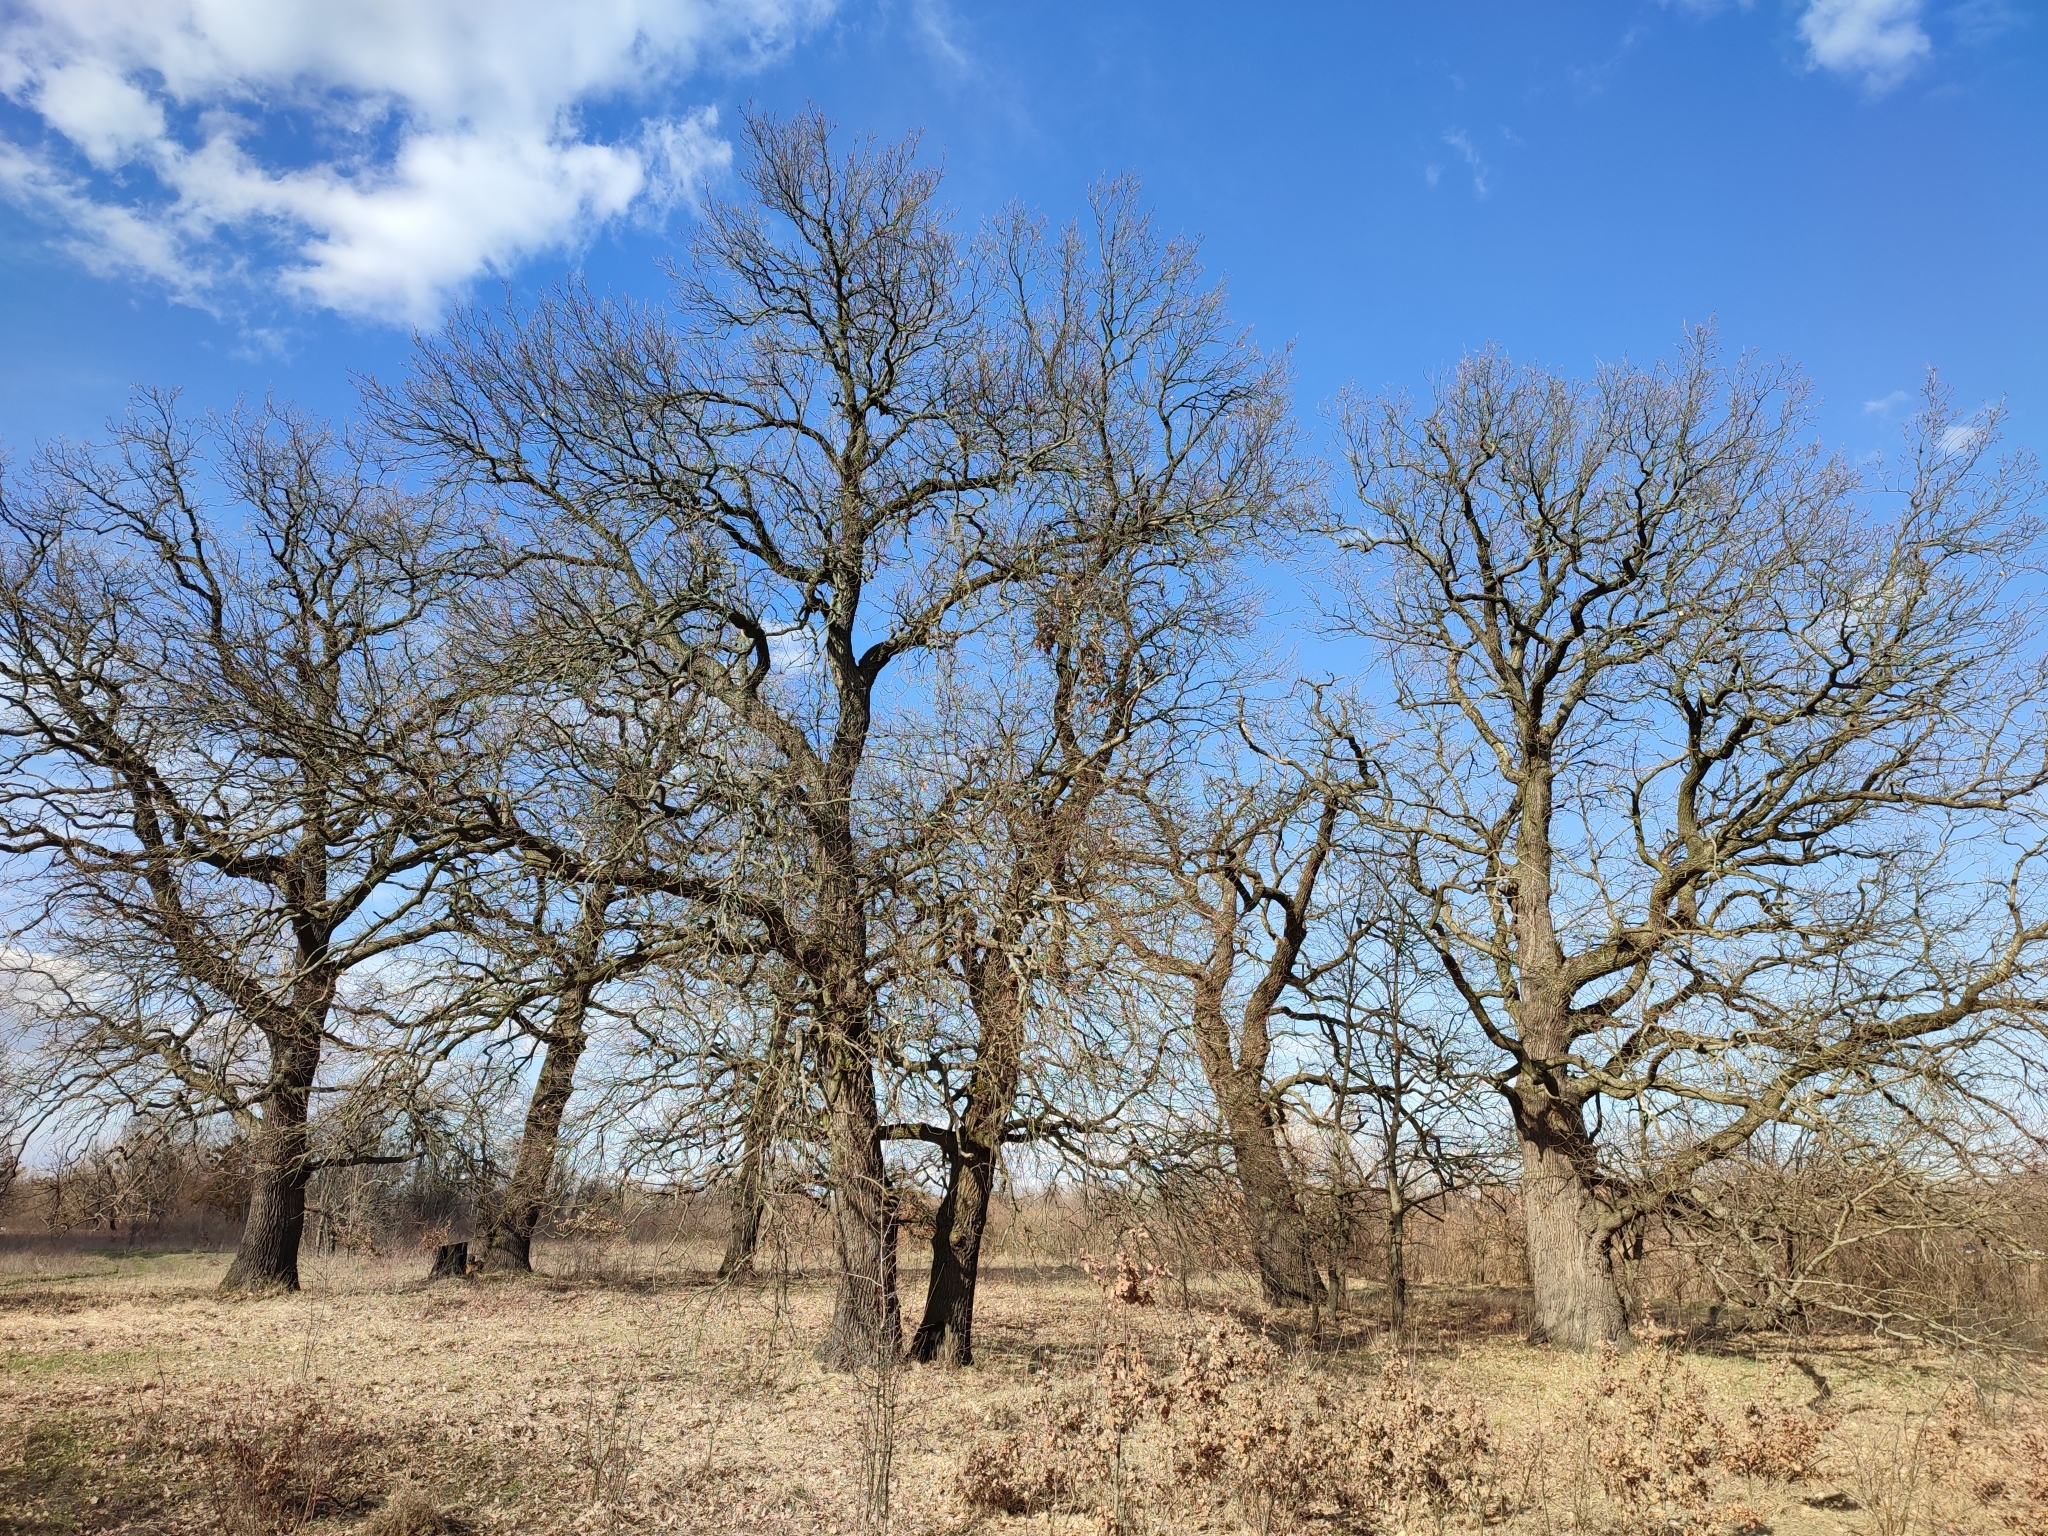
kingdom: Plantae
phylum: Tracheophyta
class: Magnoliopsida
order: Fagales
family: Fagaceae
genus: Quercus
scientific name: Quercus robur
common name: Pedunculate oak
